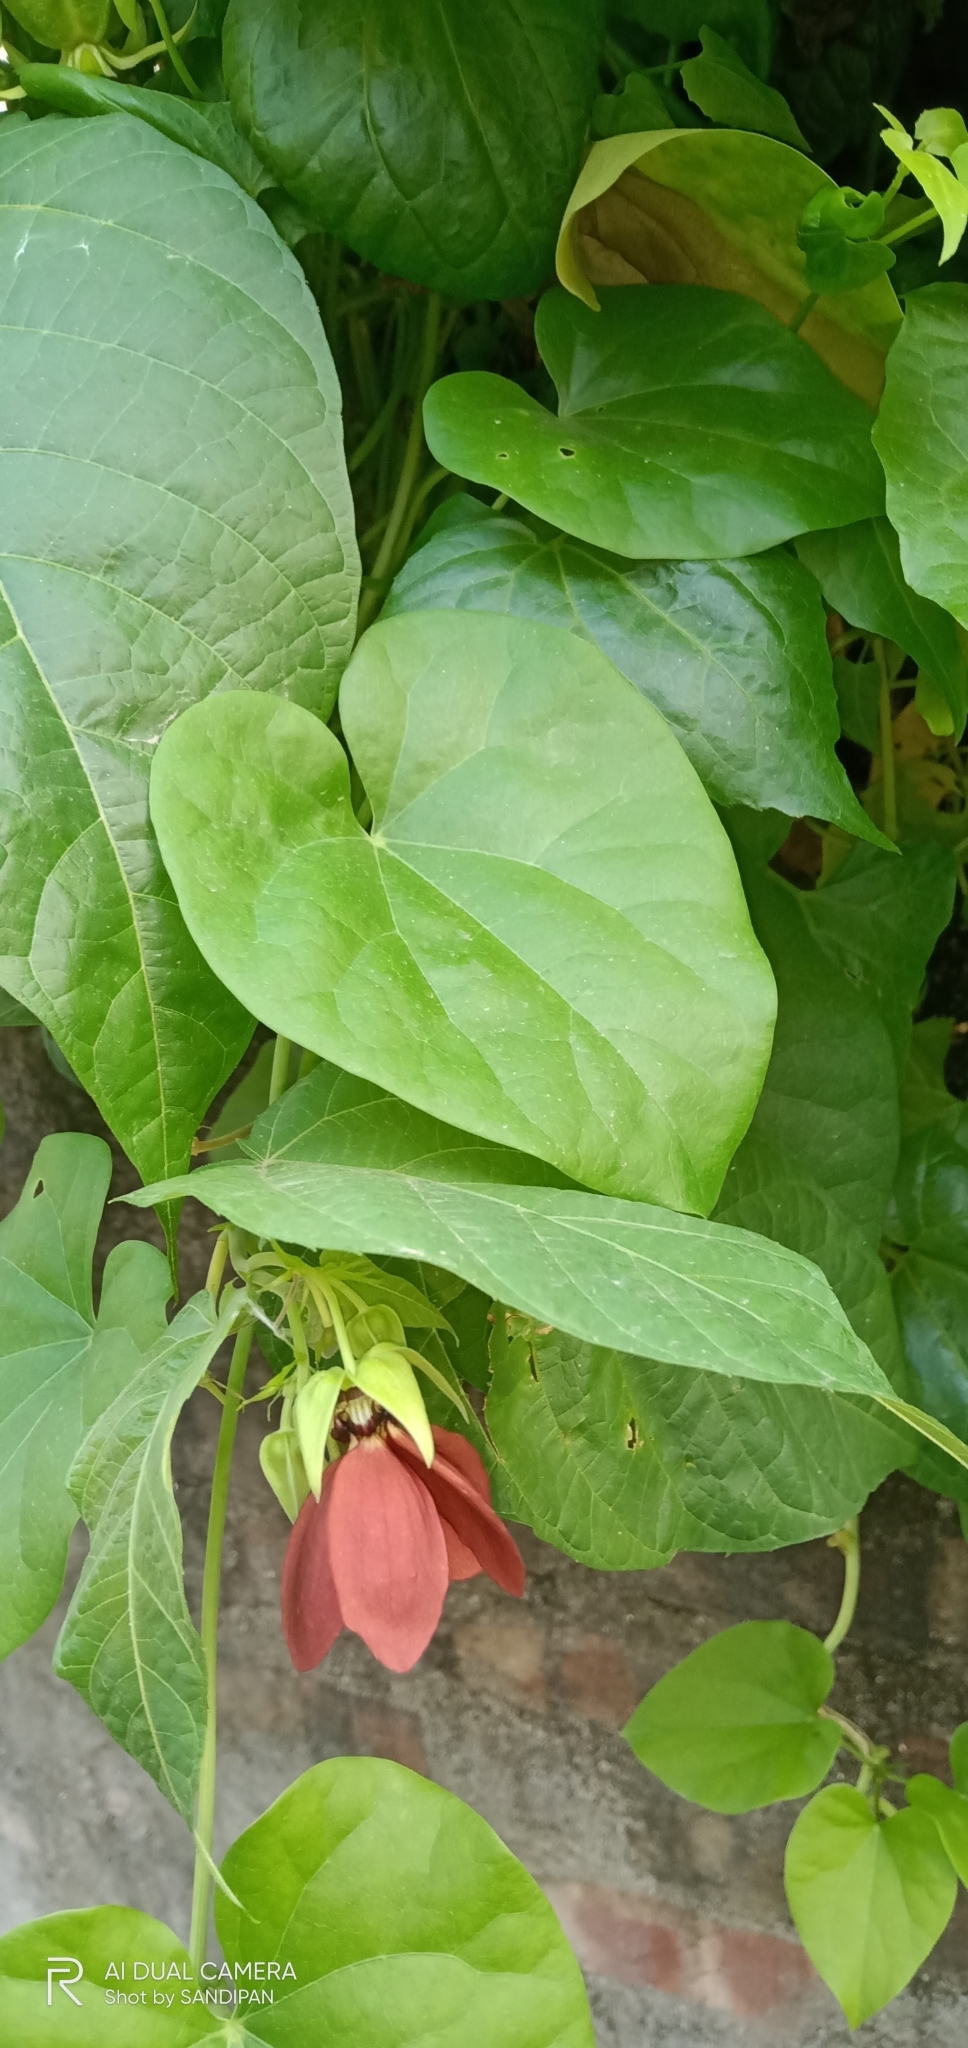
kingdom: Plantae
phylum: Tracheophyta
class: Magnoliopsida
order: Malvales
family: Malvaceae
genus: Abroma
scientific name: Abroma augustum
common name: Devil's-cotton
